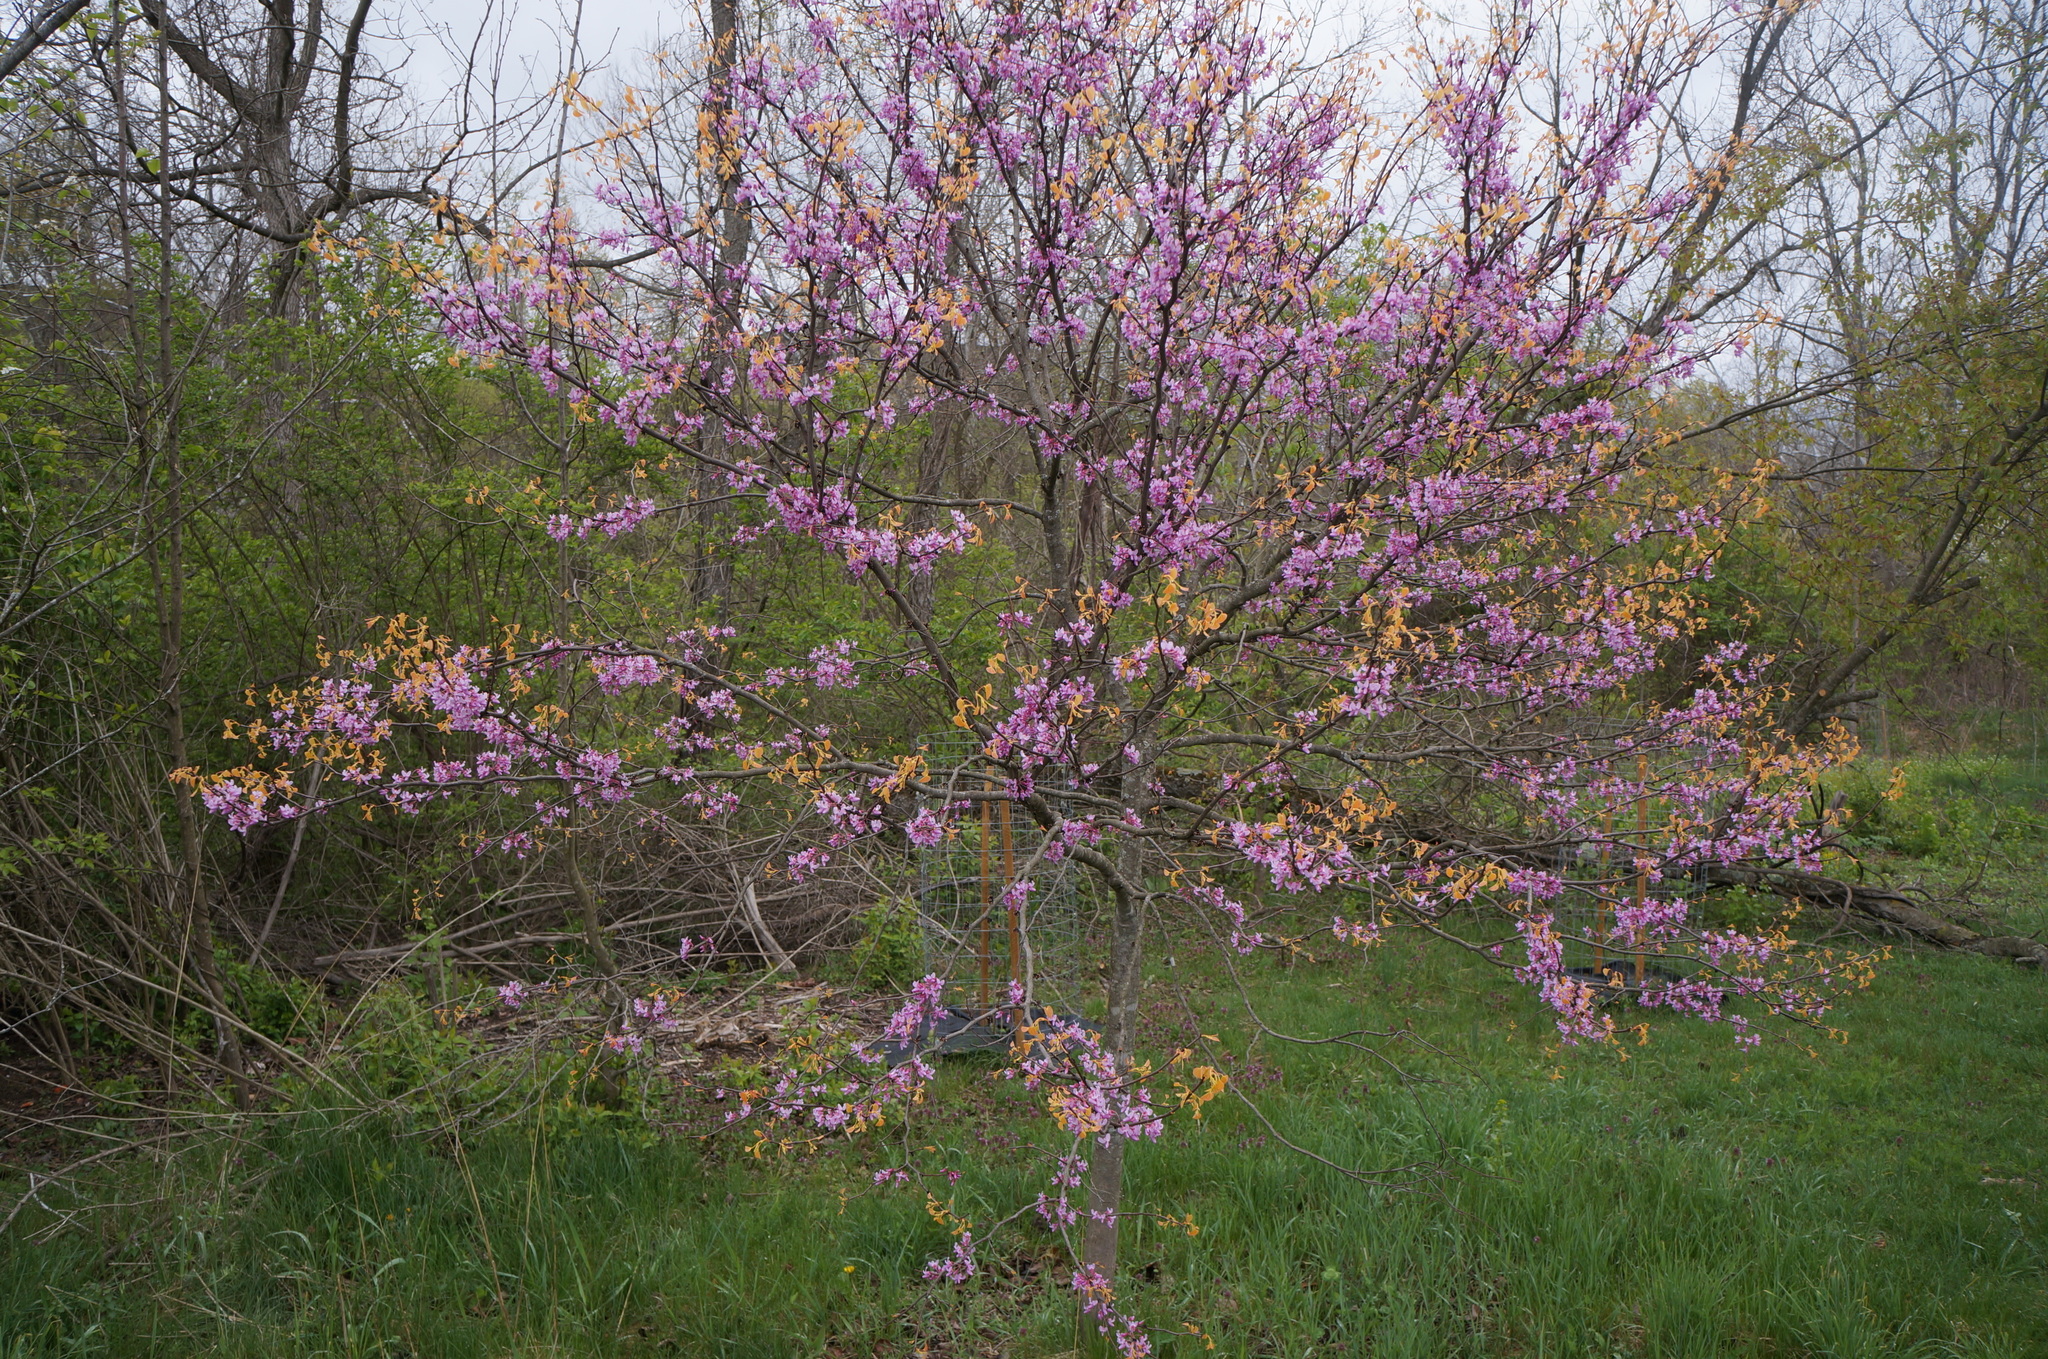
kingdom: Plantae
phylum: Tracheophyta
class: Magnoliopsida
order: Fabales
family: Fabaceae
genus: Cercis
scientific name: Cercis canadensis
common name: Eastern redbud
